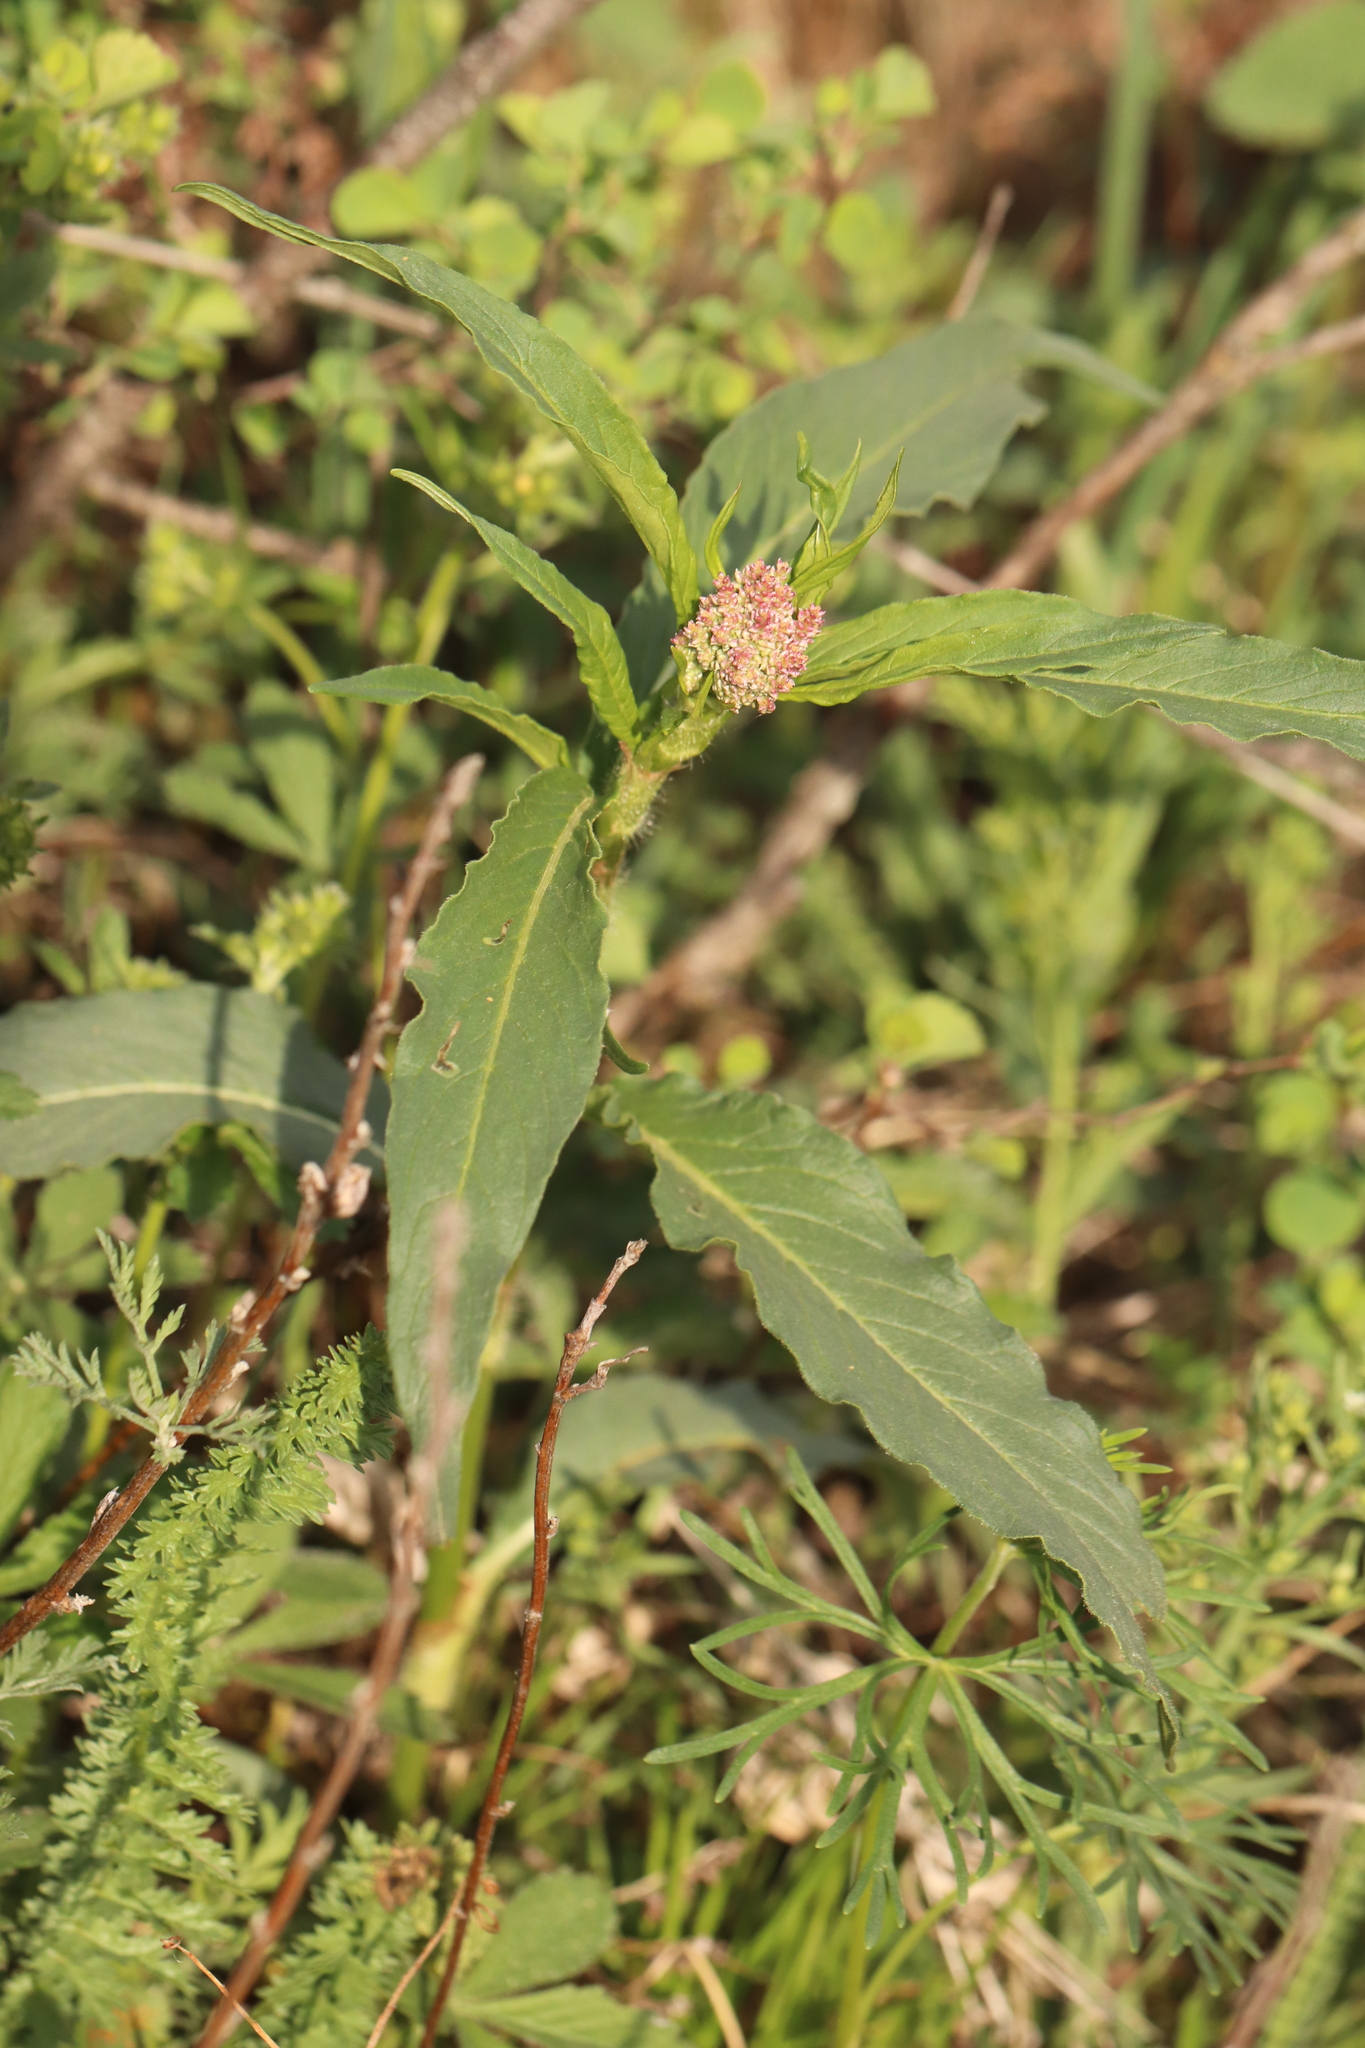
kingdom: Plantae
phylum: Tracheophyta
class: Magnoliopsida
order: Caryophyllales
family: Polygonaceae
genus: Koenigia
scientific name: Koenigia alpina
